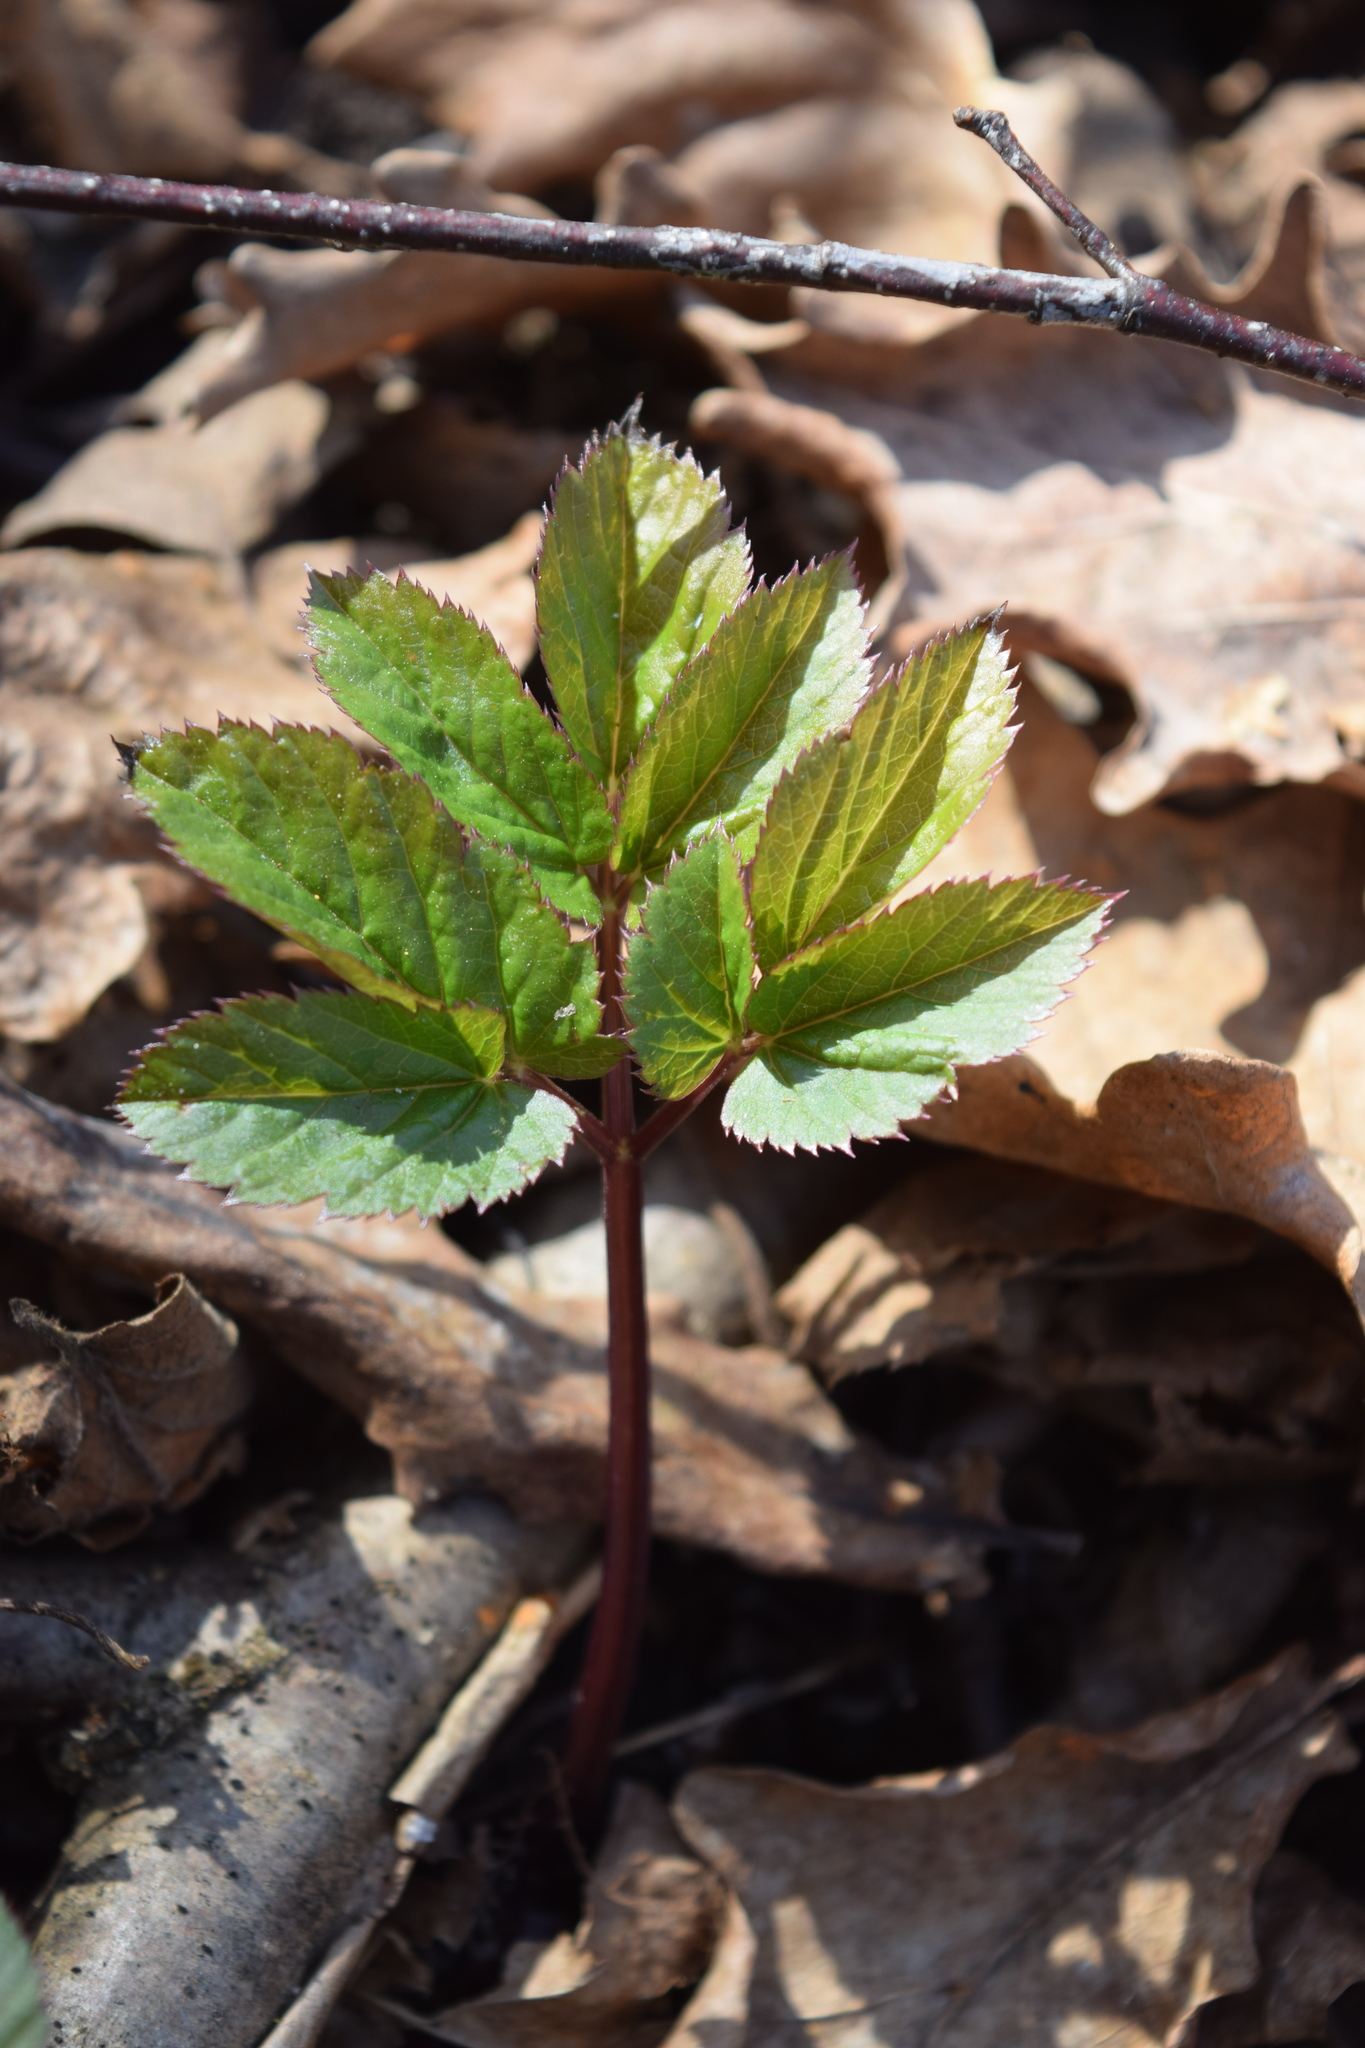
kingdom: Plantae
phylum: Tracheophyta
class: Magnoliopsida
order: Apiales
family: Apiaceae
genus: Aegopodium
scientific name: Aegopodium podagraria
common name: Ground-elder
